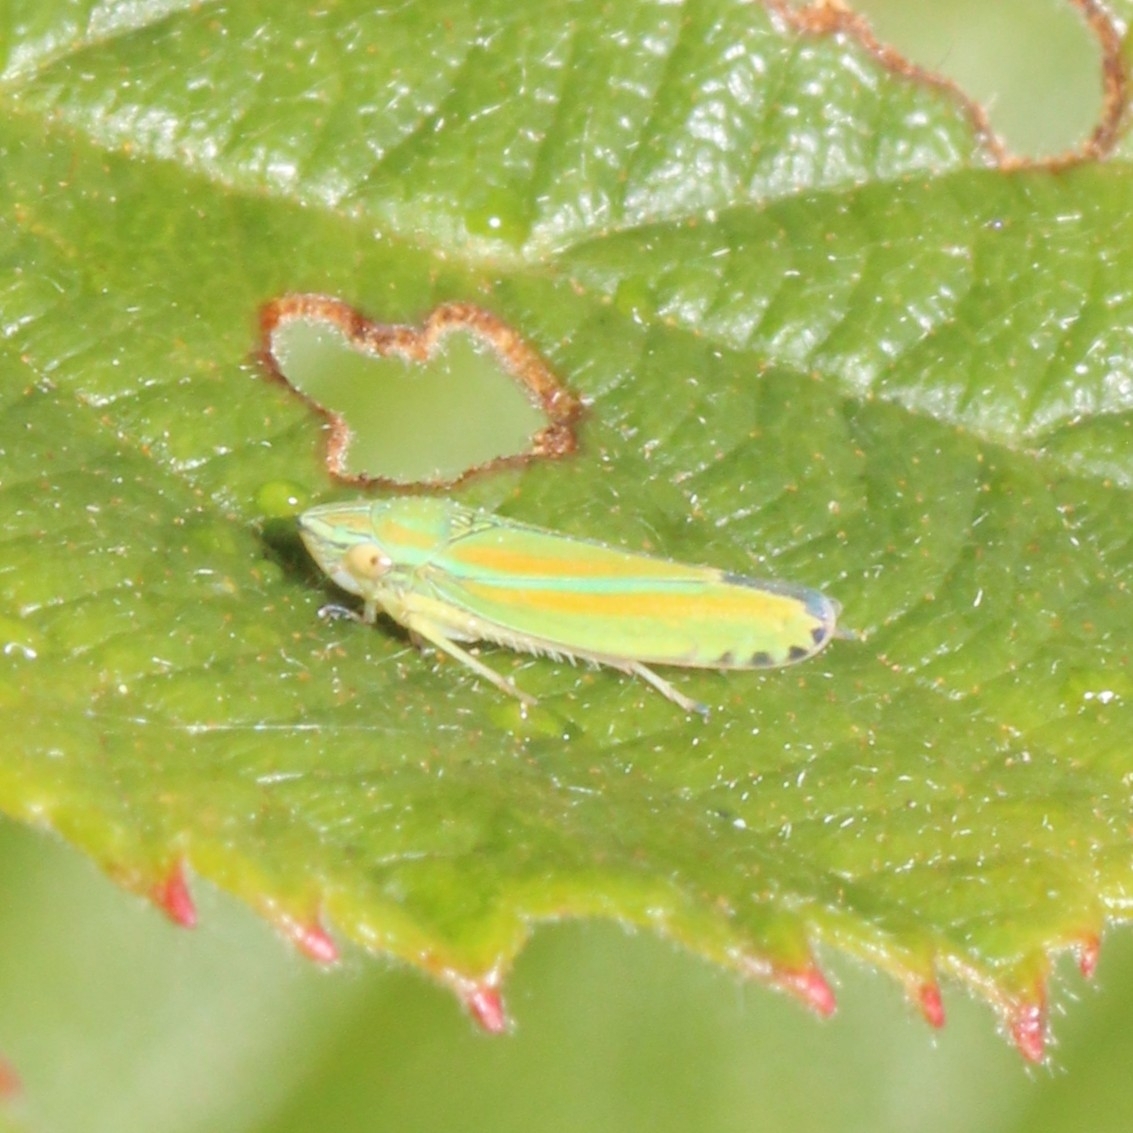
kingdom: Animalia
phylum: Arthropoda
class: Insecta
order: Hemiptera
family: Cicadellidae
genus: Graphocephala
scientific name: Graphocephala versuta
